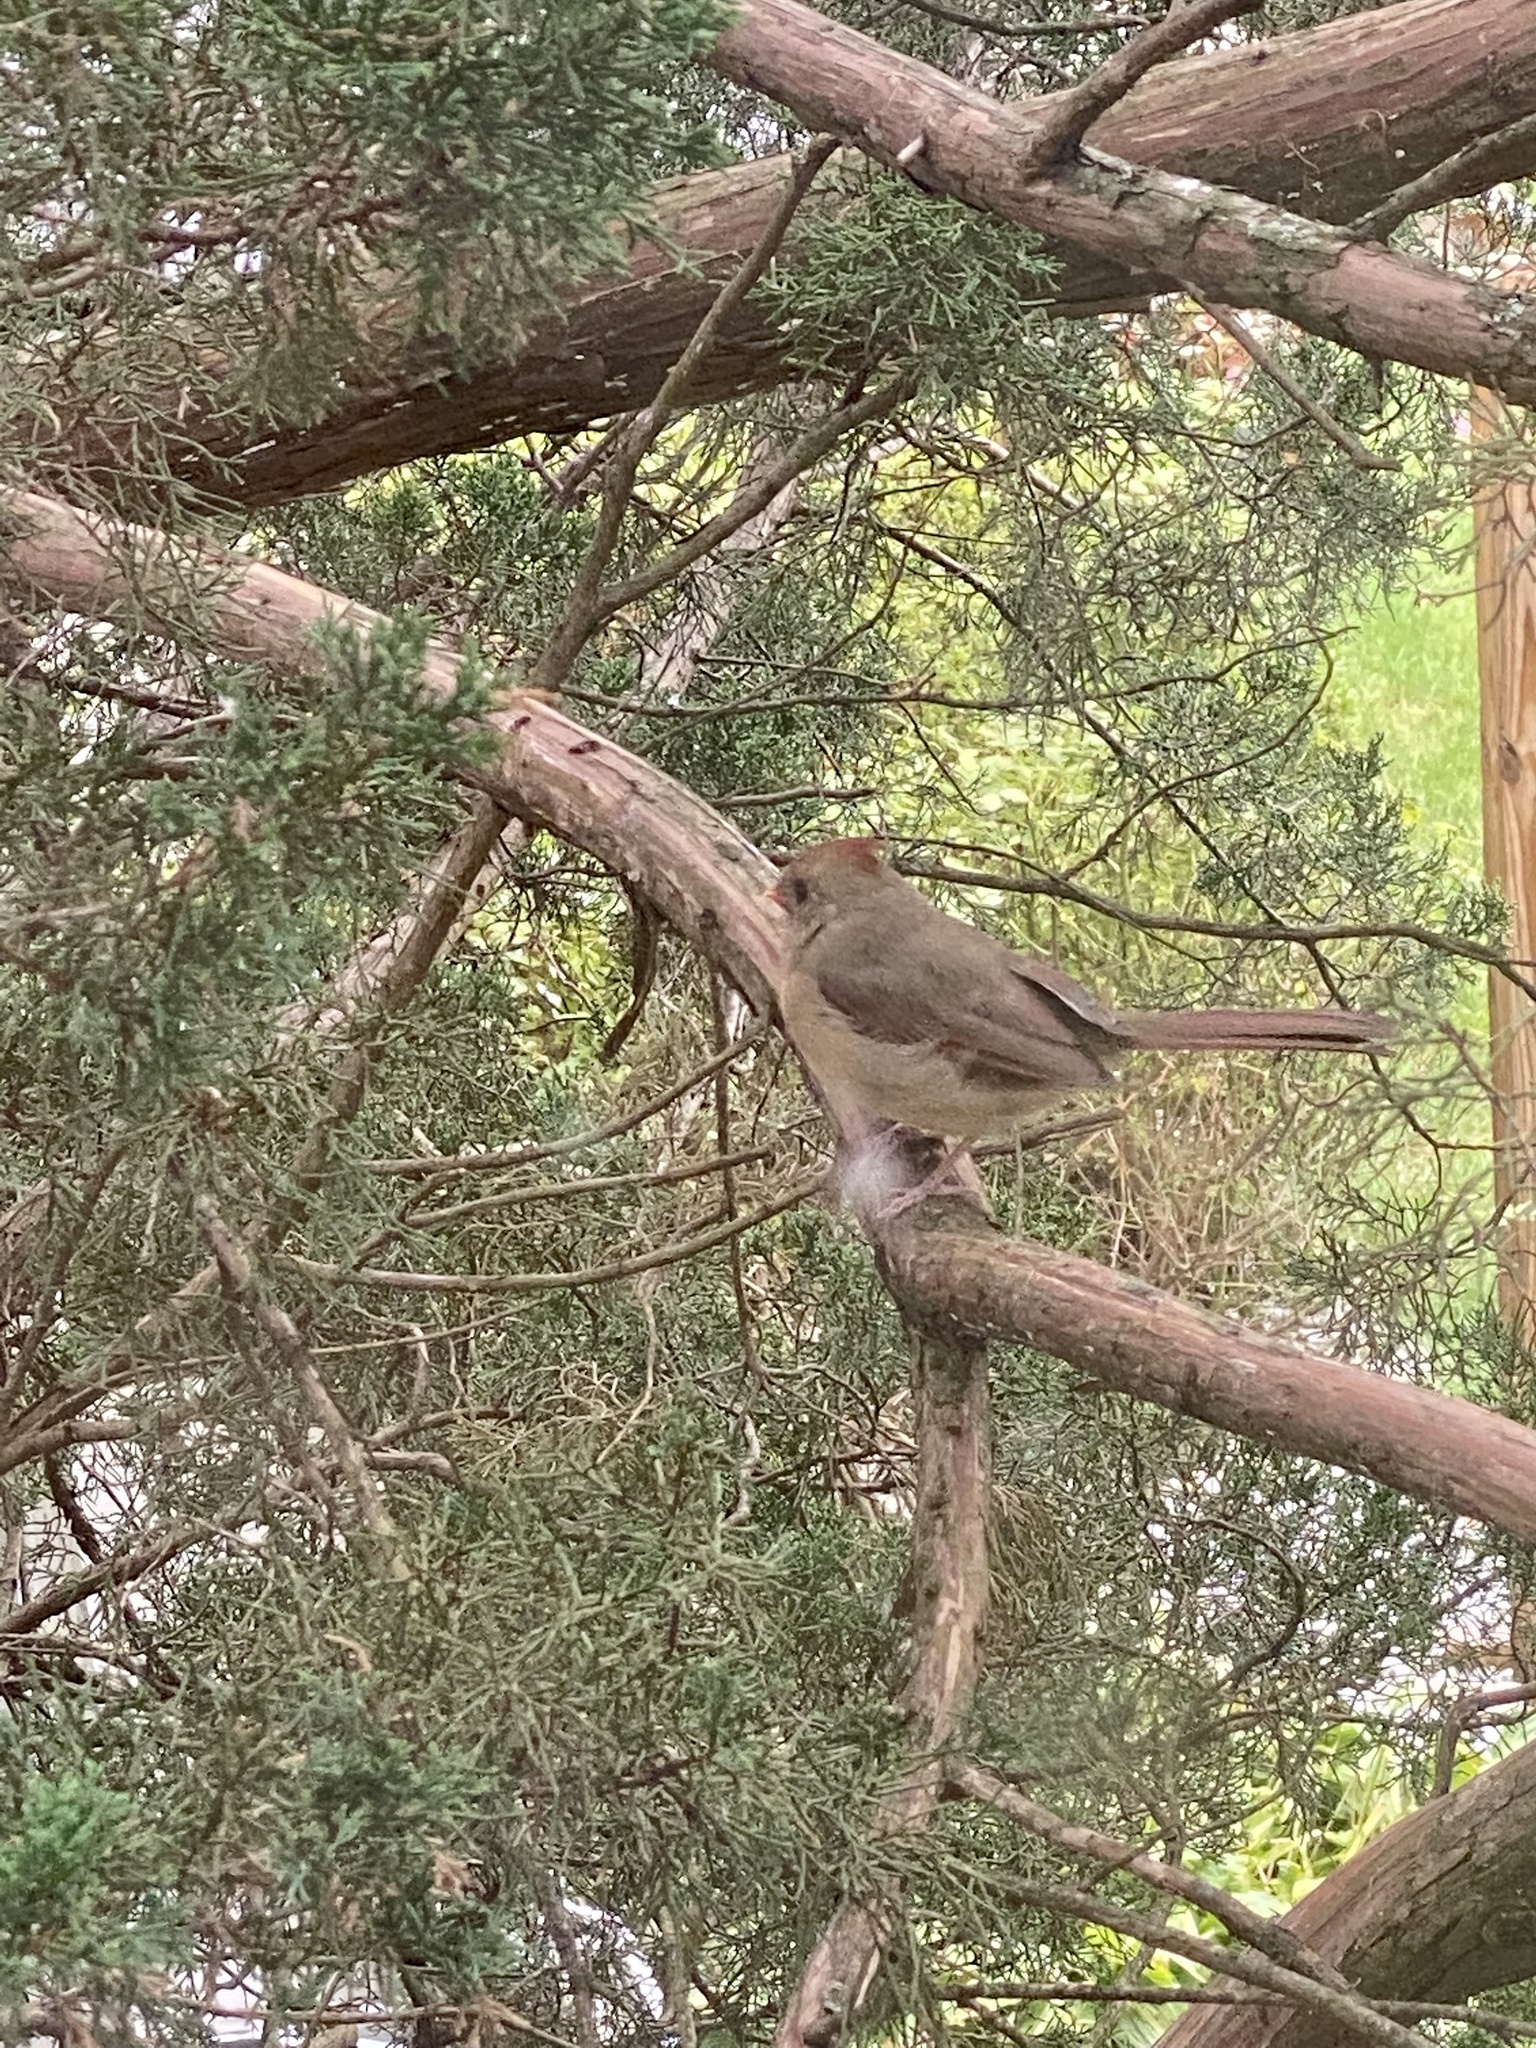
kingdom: Animalia
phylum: Chordata
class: Aves
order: Passeriformes
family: Cardinalidae
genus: Cardinalis
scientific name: Cardinalis cardinalis
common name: Northern cardinal
